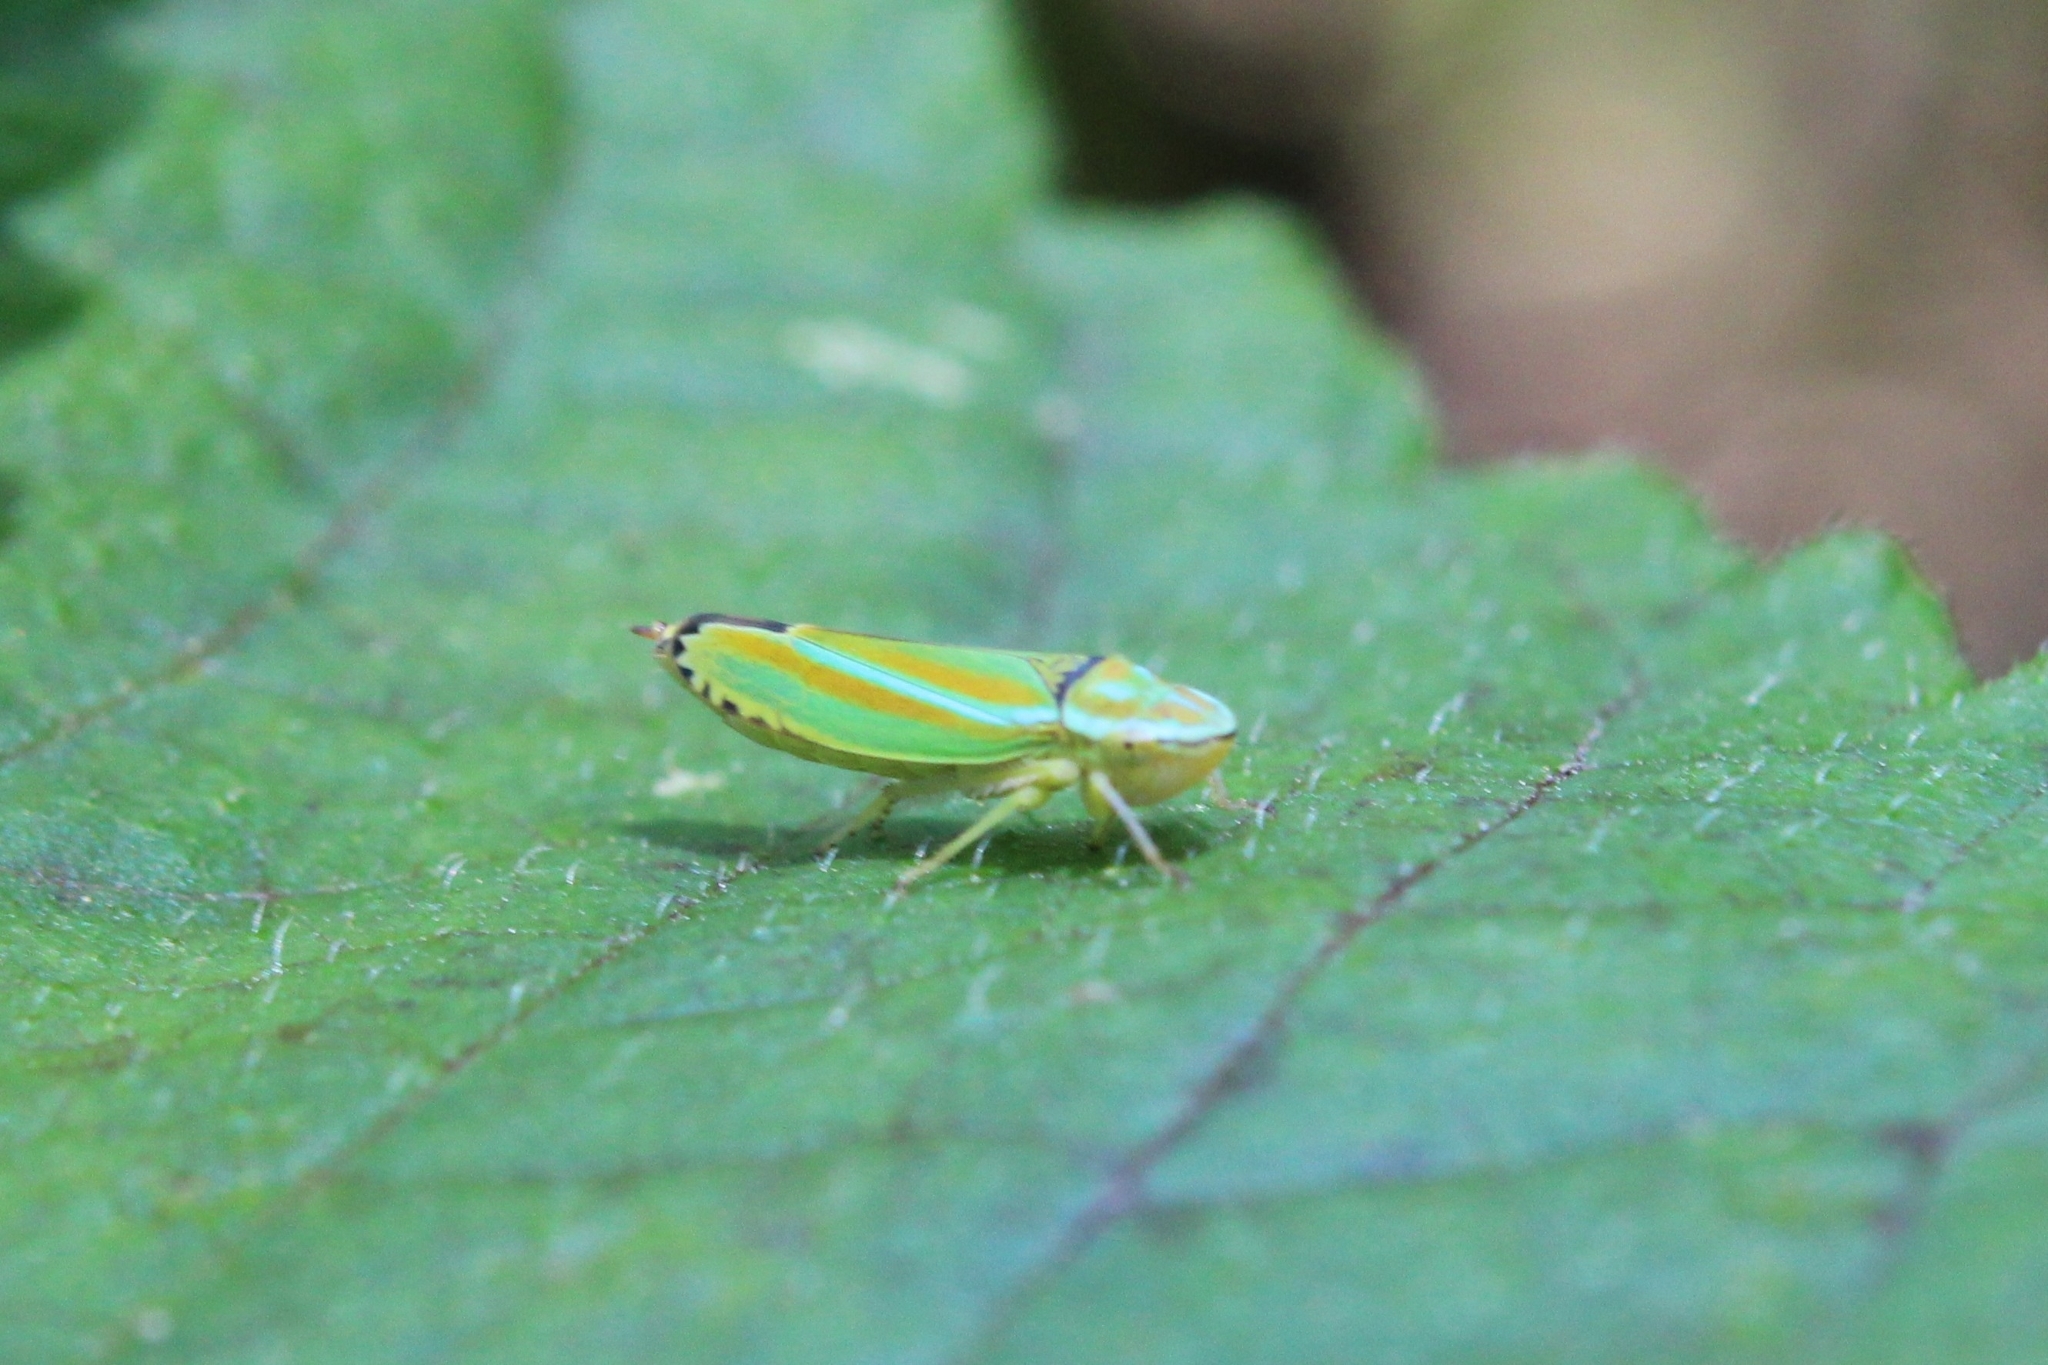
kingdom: Animalia
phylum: Arthropoda
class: Insecta
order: Hemiptera
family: Cicadellidae
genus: Graphocephala
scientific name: Graphocephala versuta
